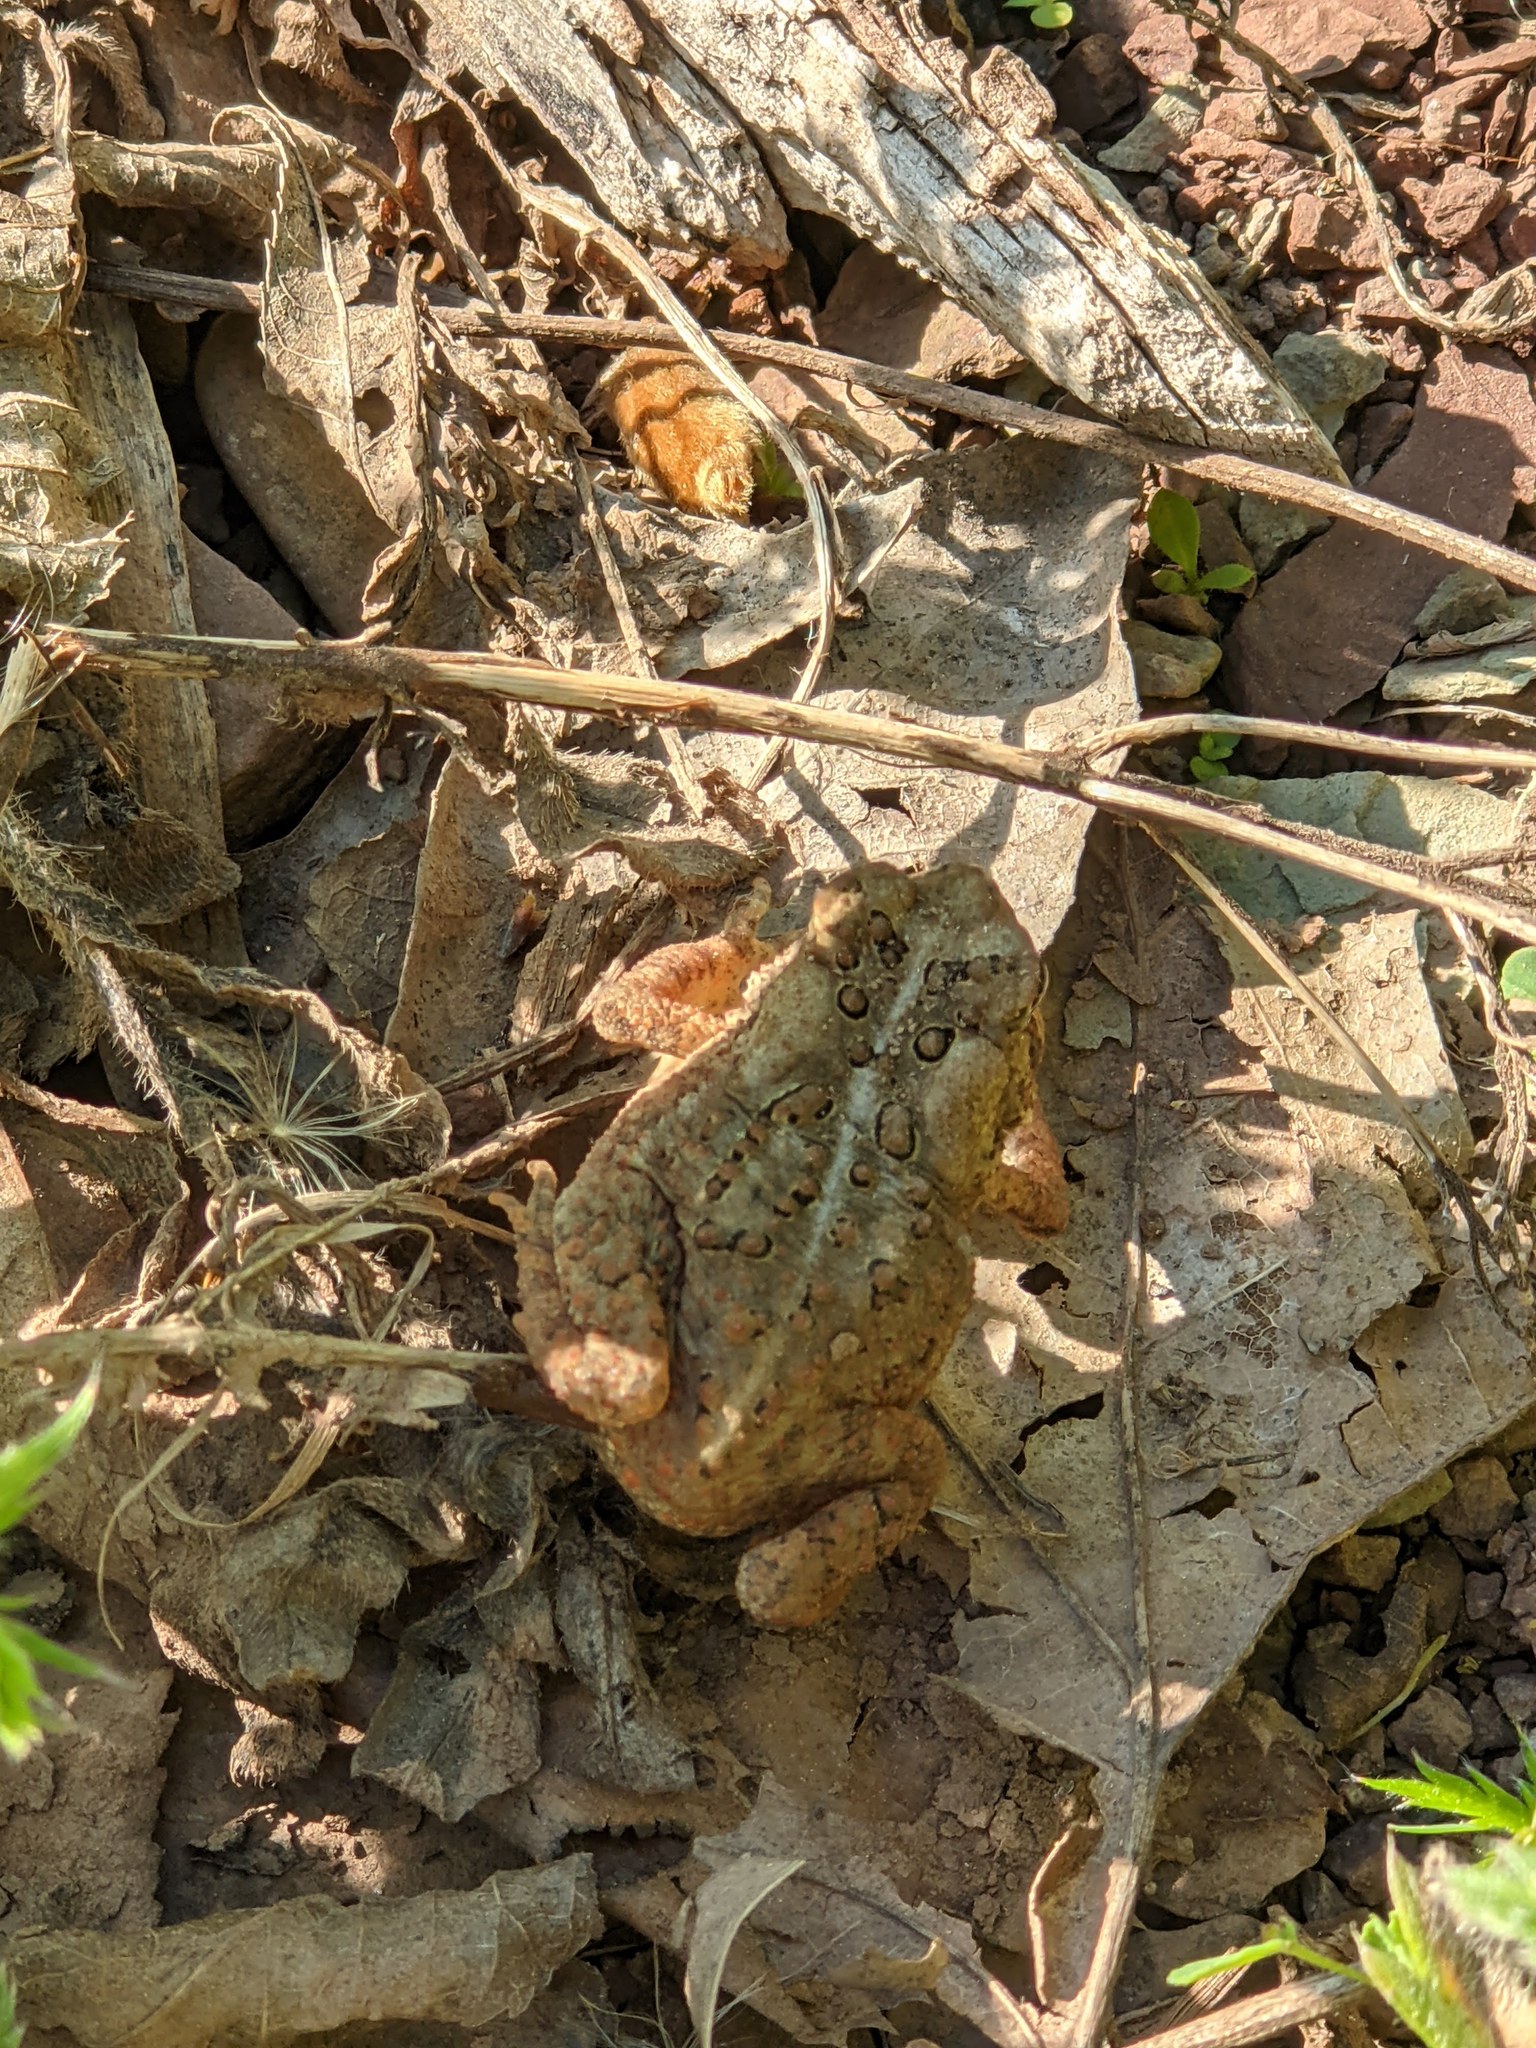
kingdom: Animalia
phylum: Chordata
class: Amphibia
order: Anura
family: Bufonidae
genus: Anaxyrus
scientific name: Anaxyrus americanus
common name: American toad
